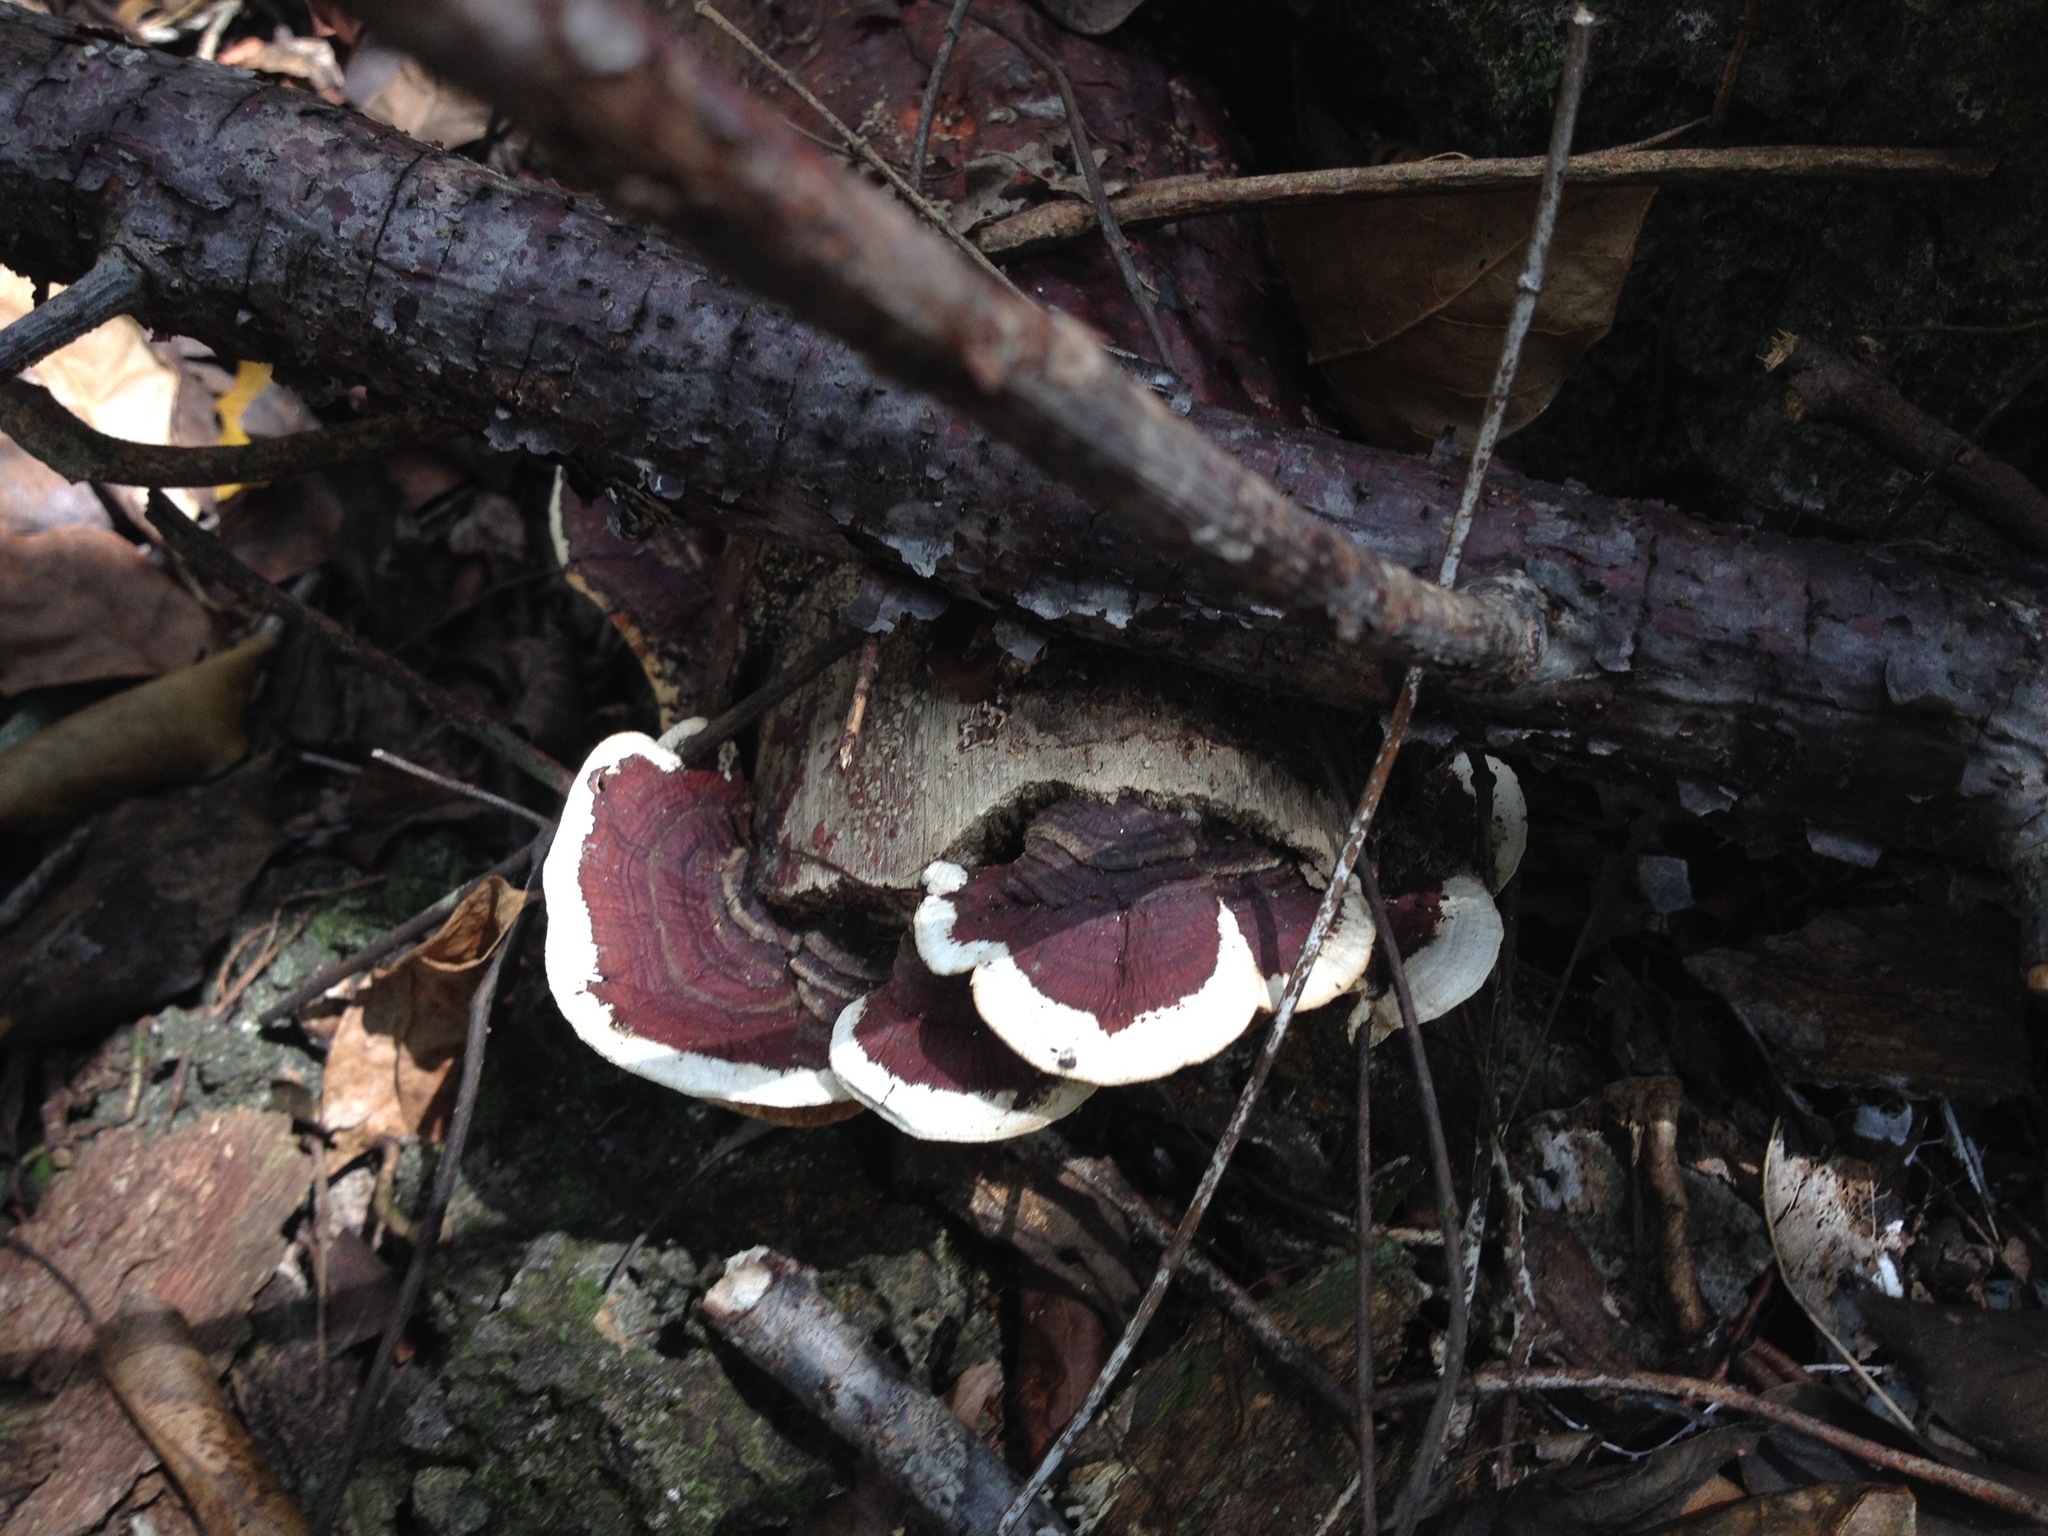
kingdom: Fungi
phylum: Basidiomycota
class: Agaricomycetes
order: Polyporales
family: Polyporaceae
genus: Earliella
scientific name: Earliella scabrosa
